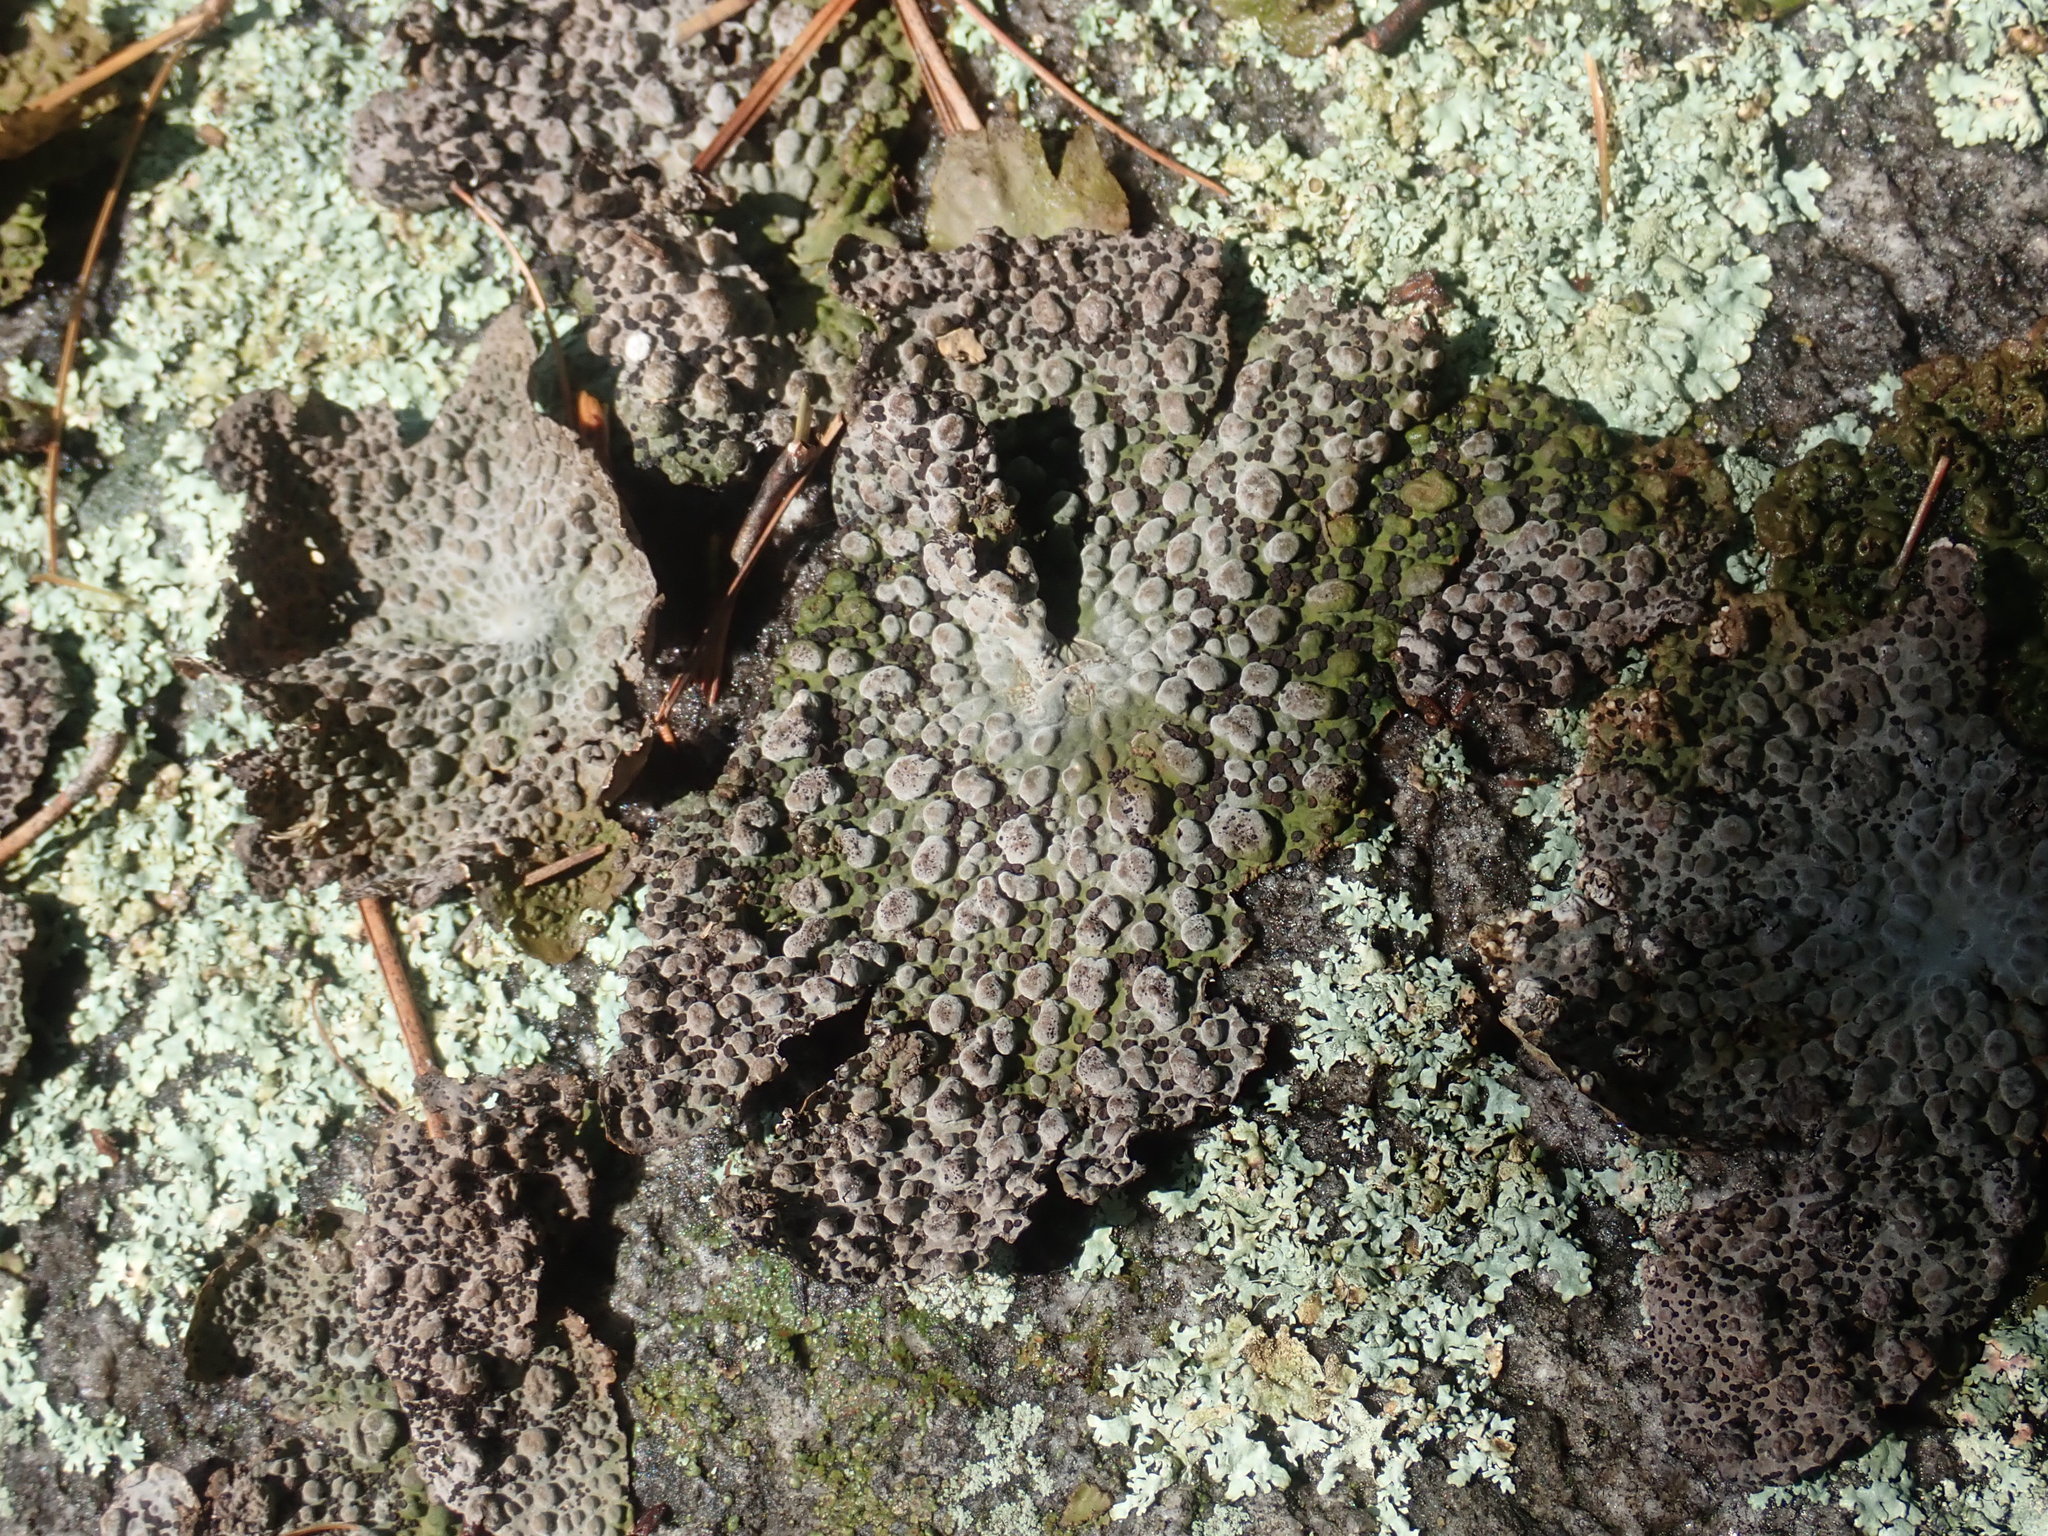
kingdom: Fungi
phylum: Ascomycota
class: Lecanoromycetes
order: Umbilicariales
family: Umbilicariaceae
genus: Lasallia
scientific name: Lasallia papulosa
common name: Common toadskin lichen
